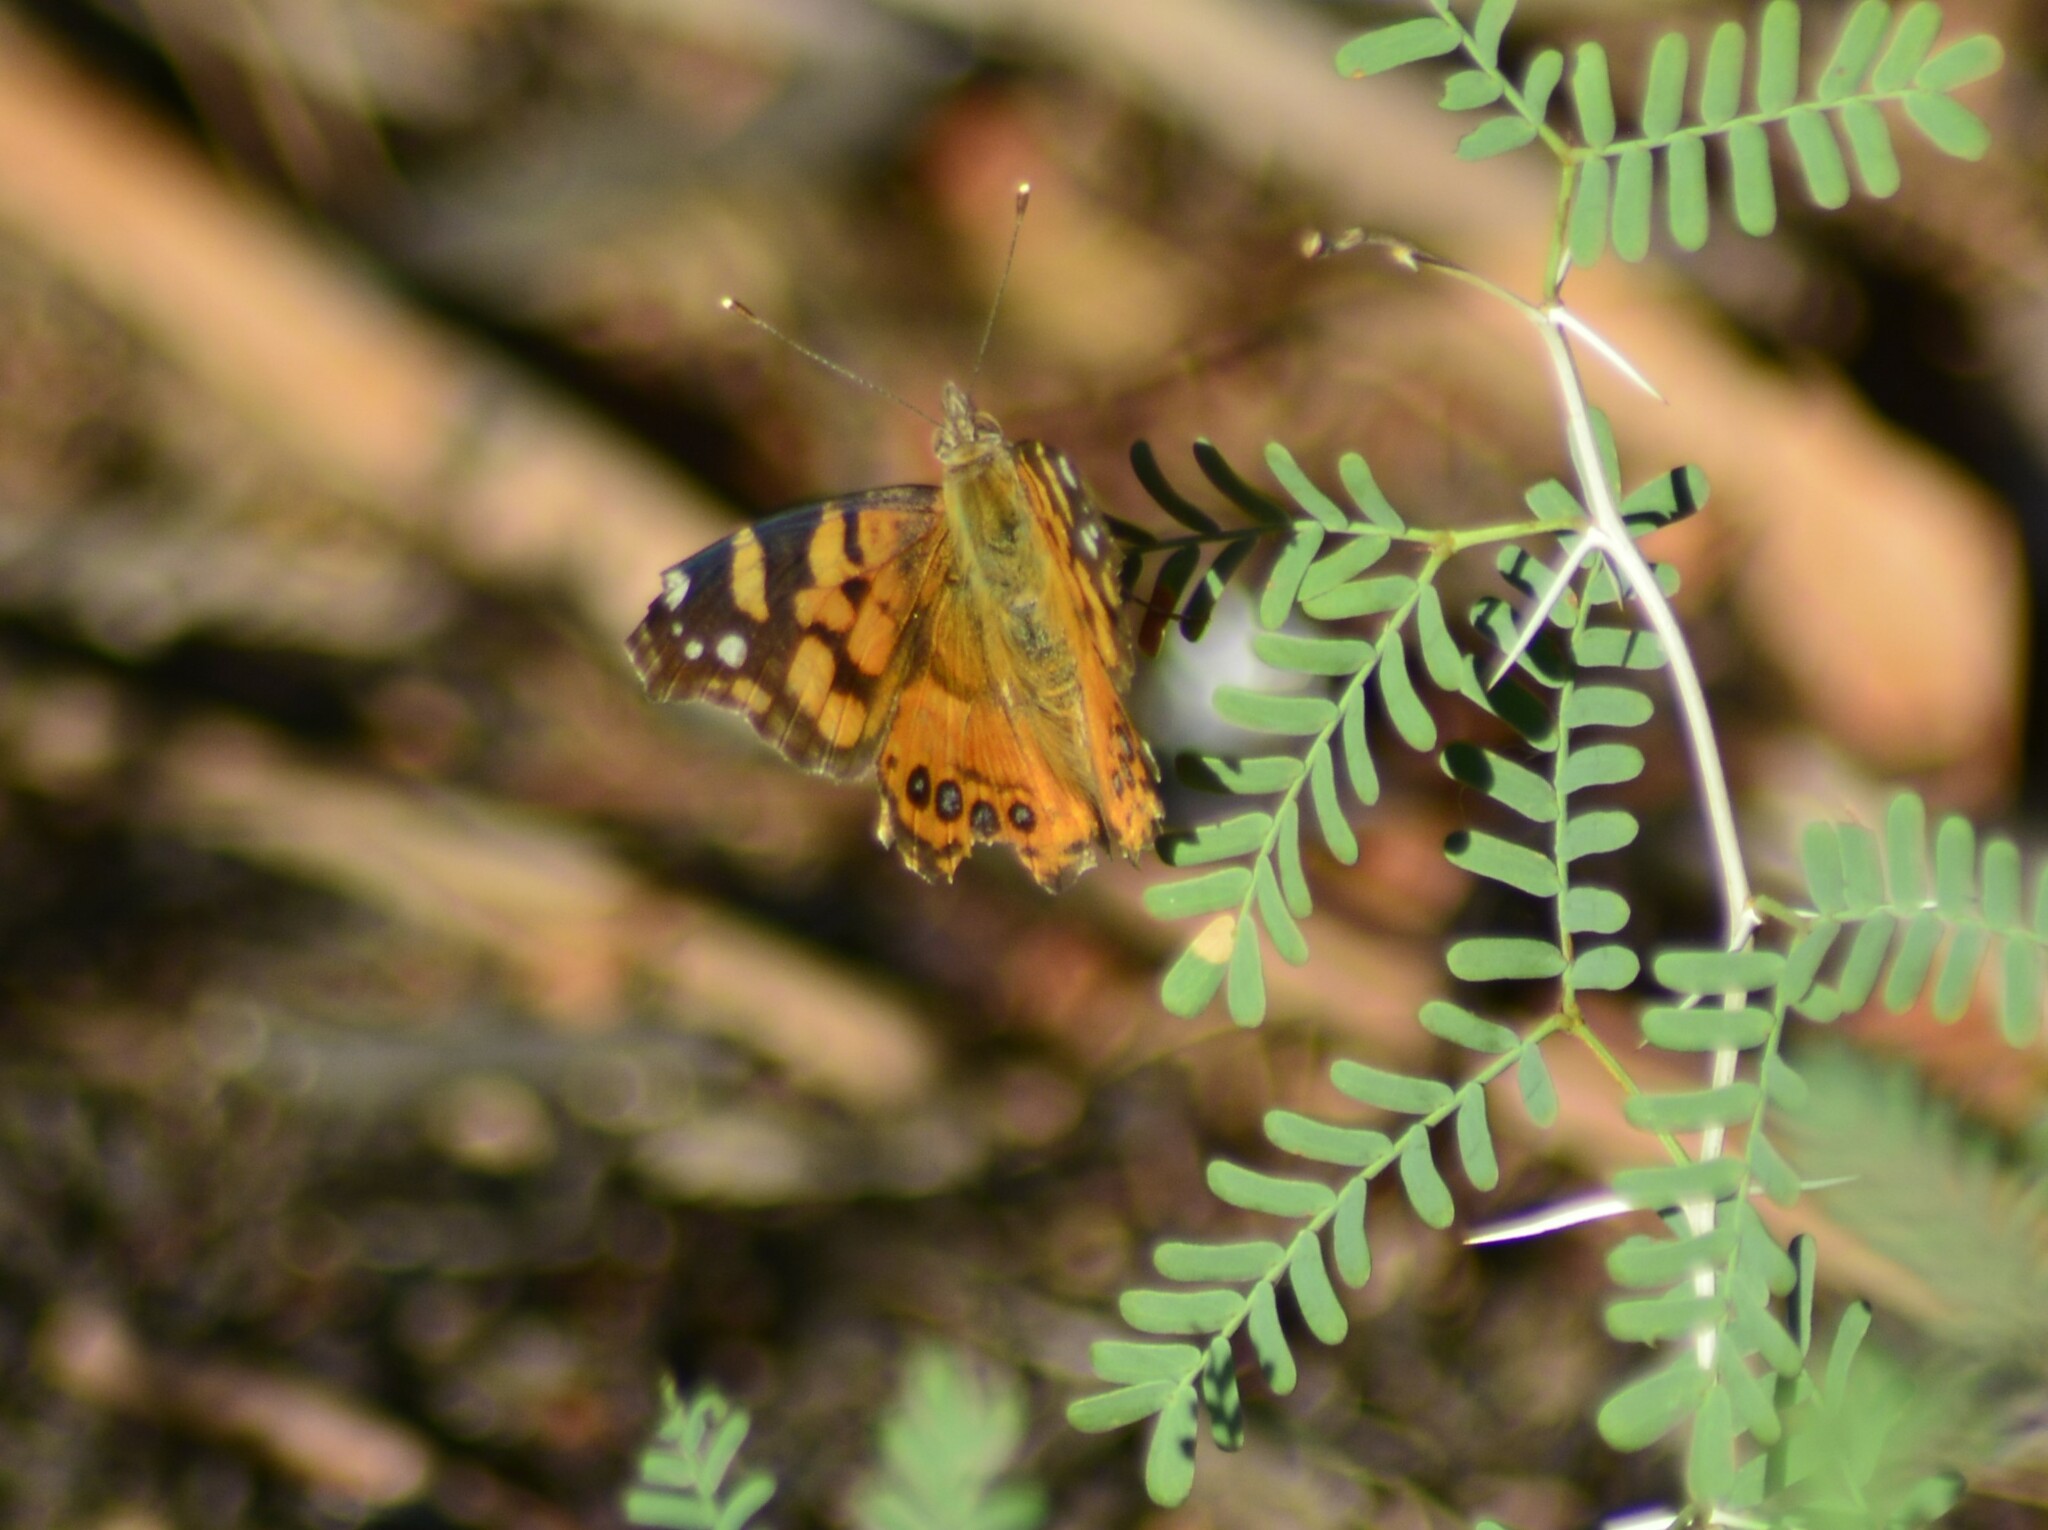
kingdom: Animalia
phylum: Arthropoda
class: Insecta
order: Lepidoptera
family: Nymphalidae
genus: Vanessa
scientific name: Vanessa carye
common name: Subtropical lady
